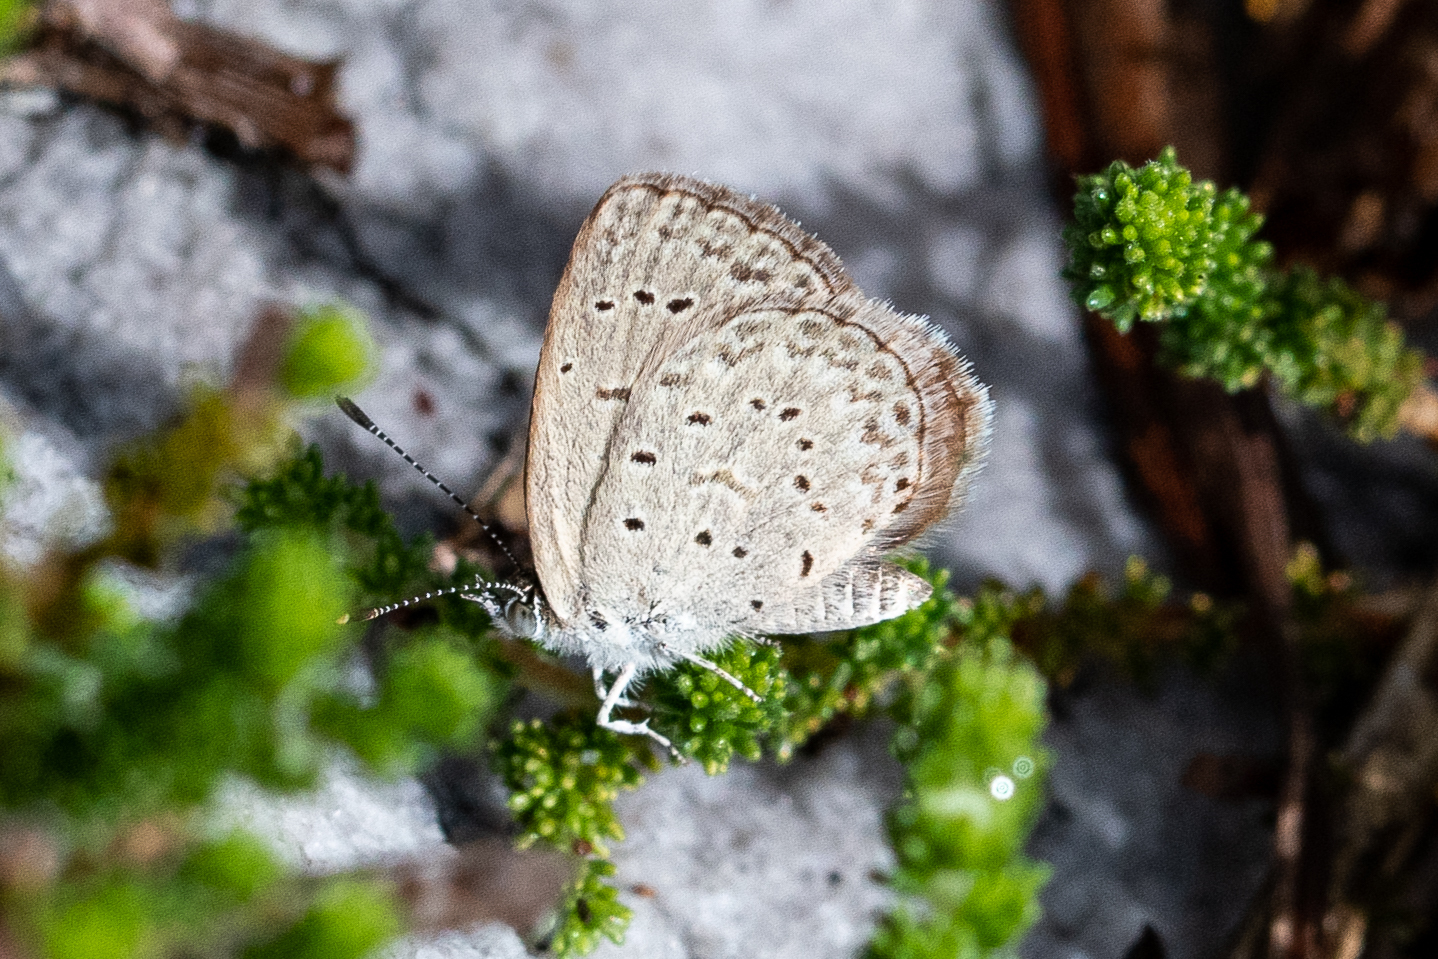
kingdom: Animalia
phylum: Arthropoda
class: Insecta
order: Lepidoptera
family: Lycaenidae
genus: Zizeeria
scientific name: Zizeeria knysna
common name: African grass blue
